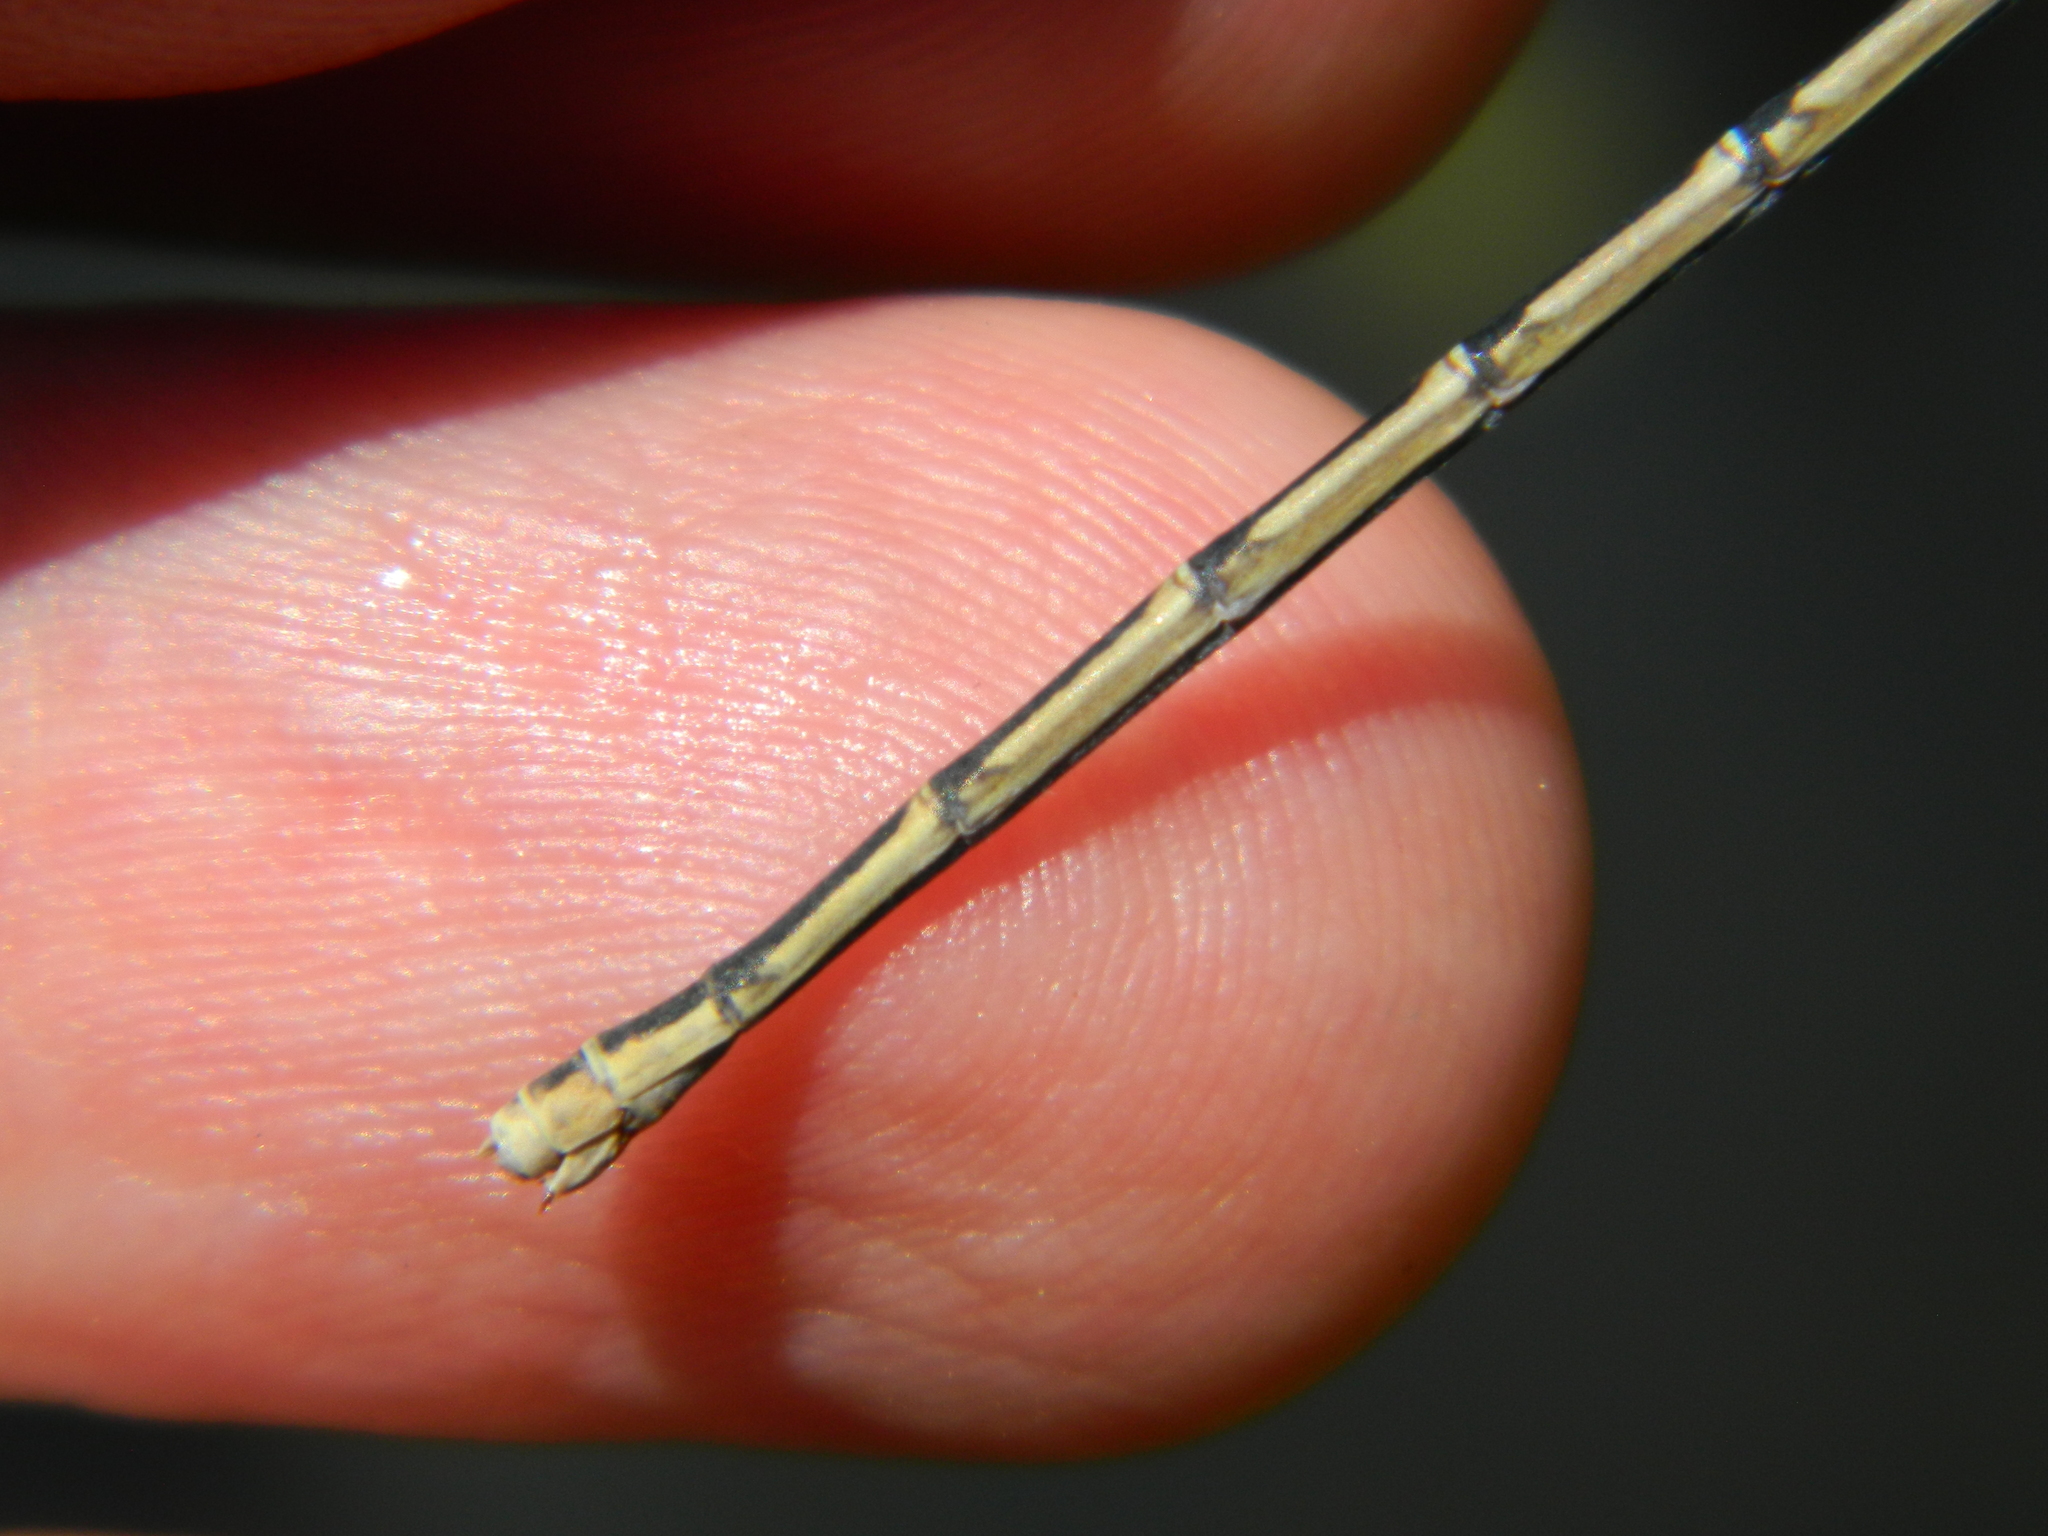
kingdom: Animalia
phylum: Arthropoda
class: Insecta
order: Odonata
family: Coenagrionidae
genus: Chromagrion
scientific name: Chromagrion conditum
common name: Aurora damsel
